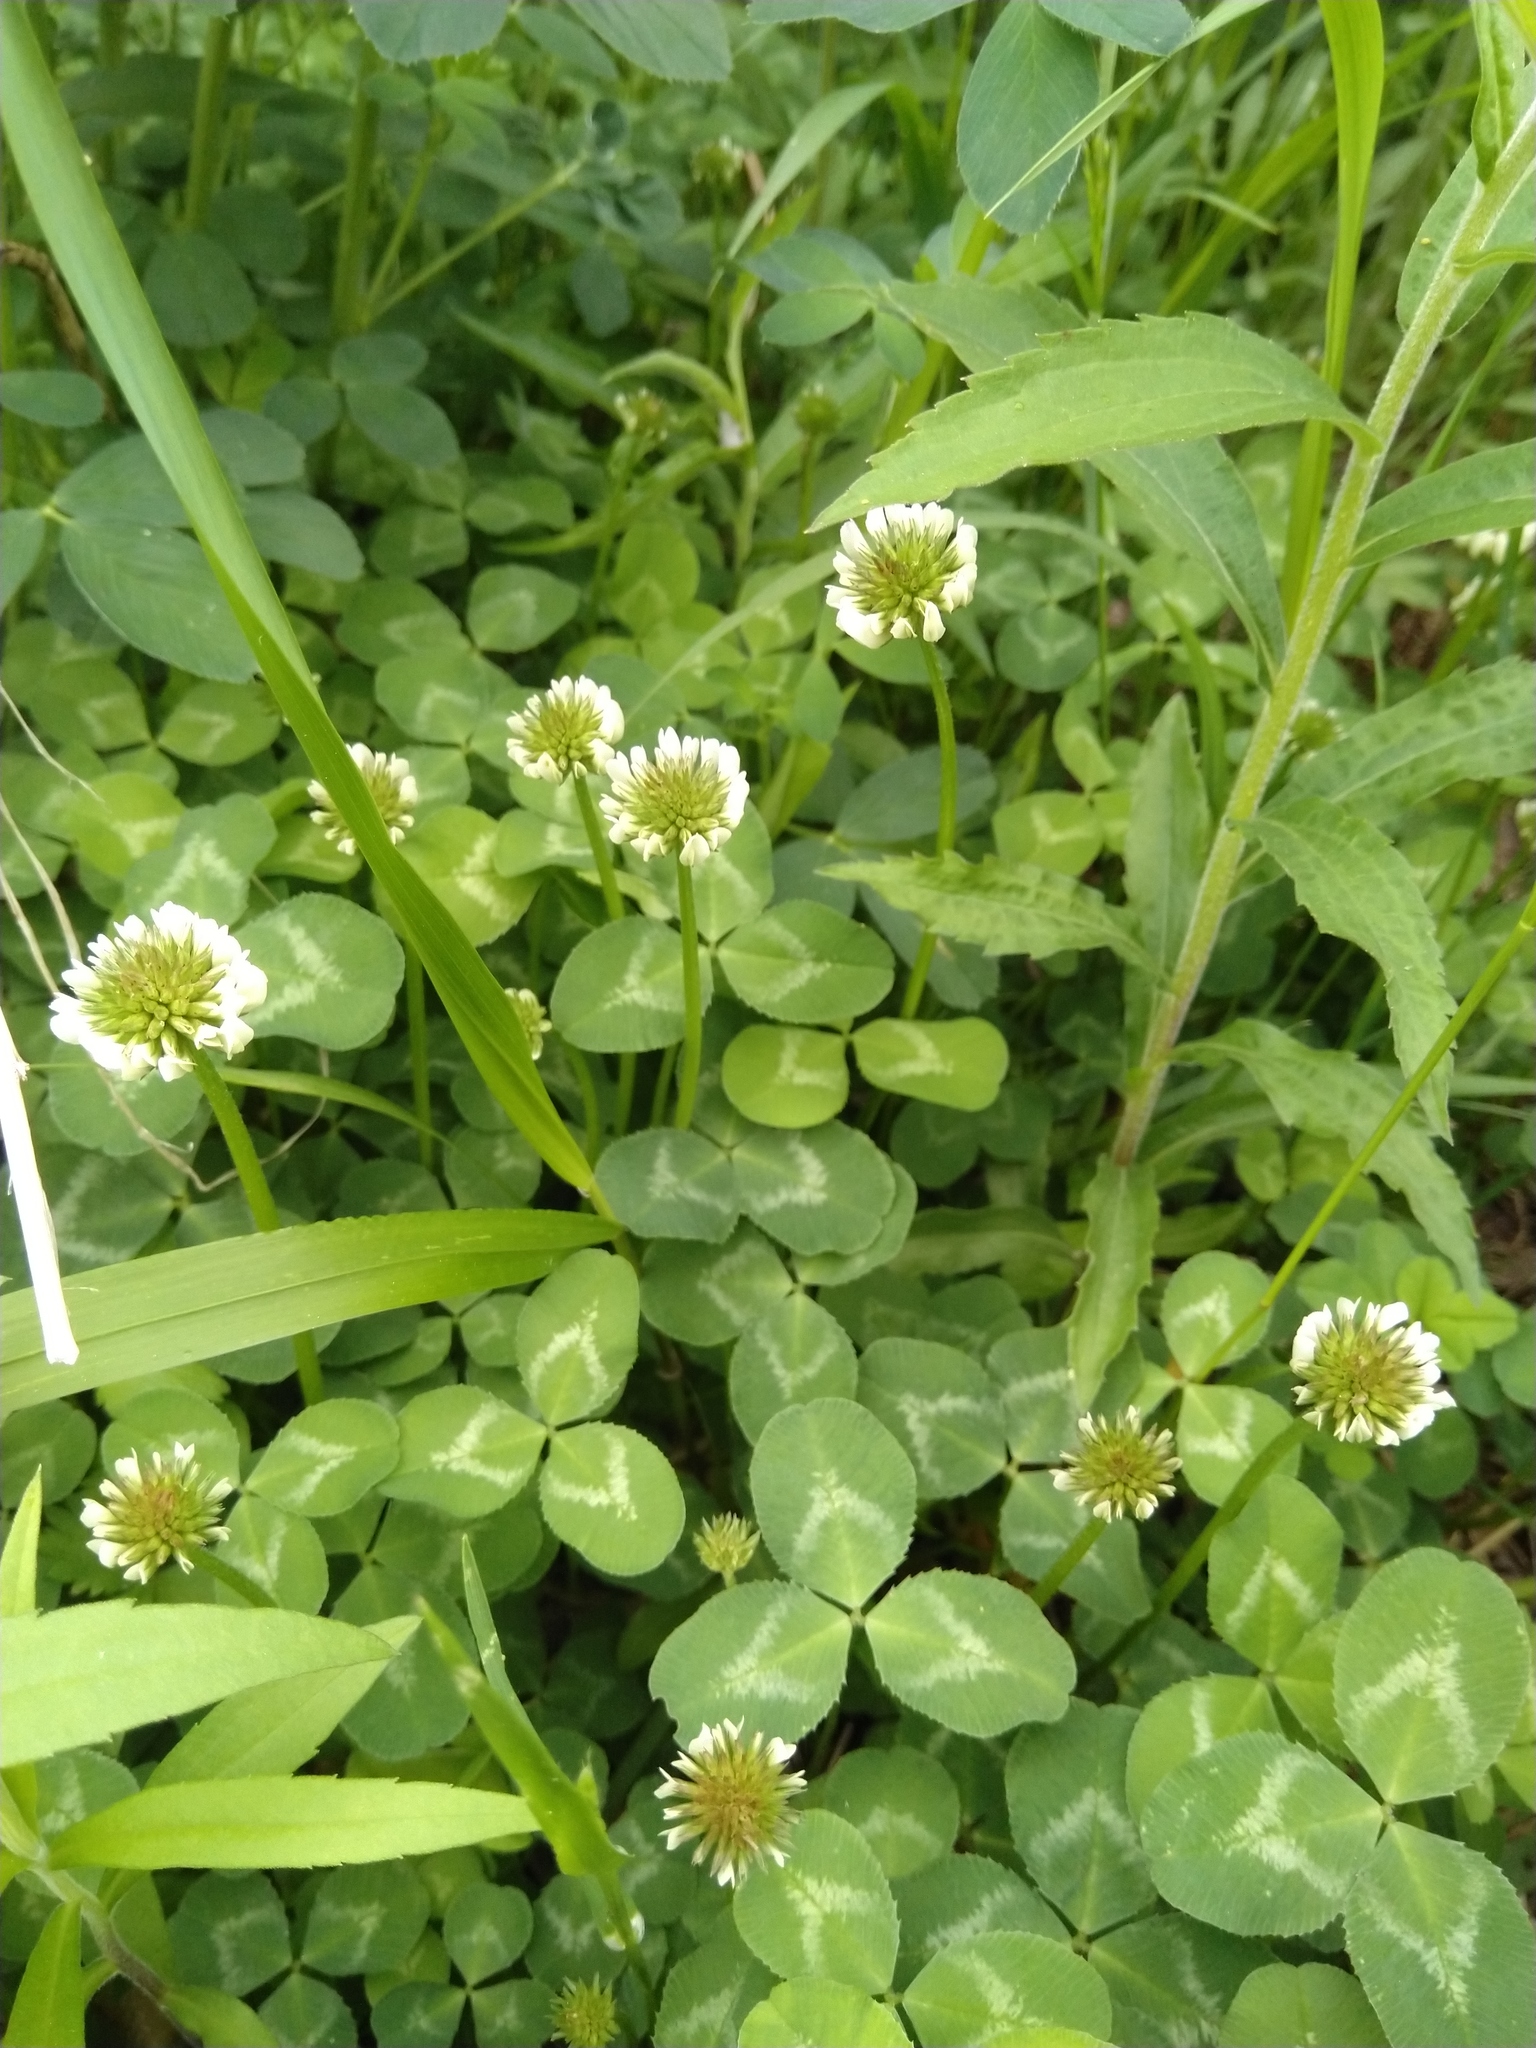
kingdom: Plantae
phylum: Tracheophyta
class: Magnoliopsida
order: Fabales
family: Fabaceae
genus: Trifolium
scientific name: Trifolium repens
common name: White clover
